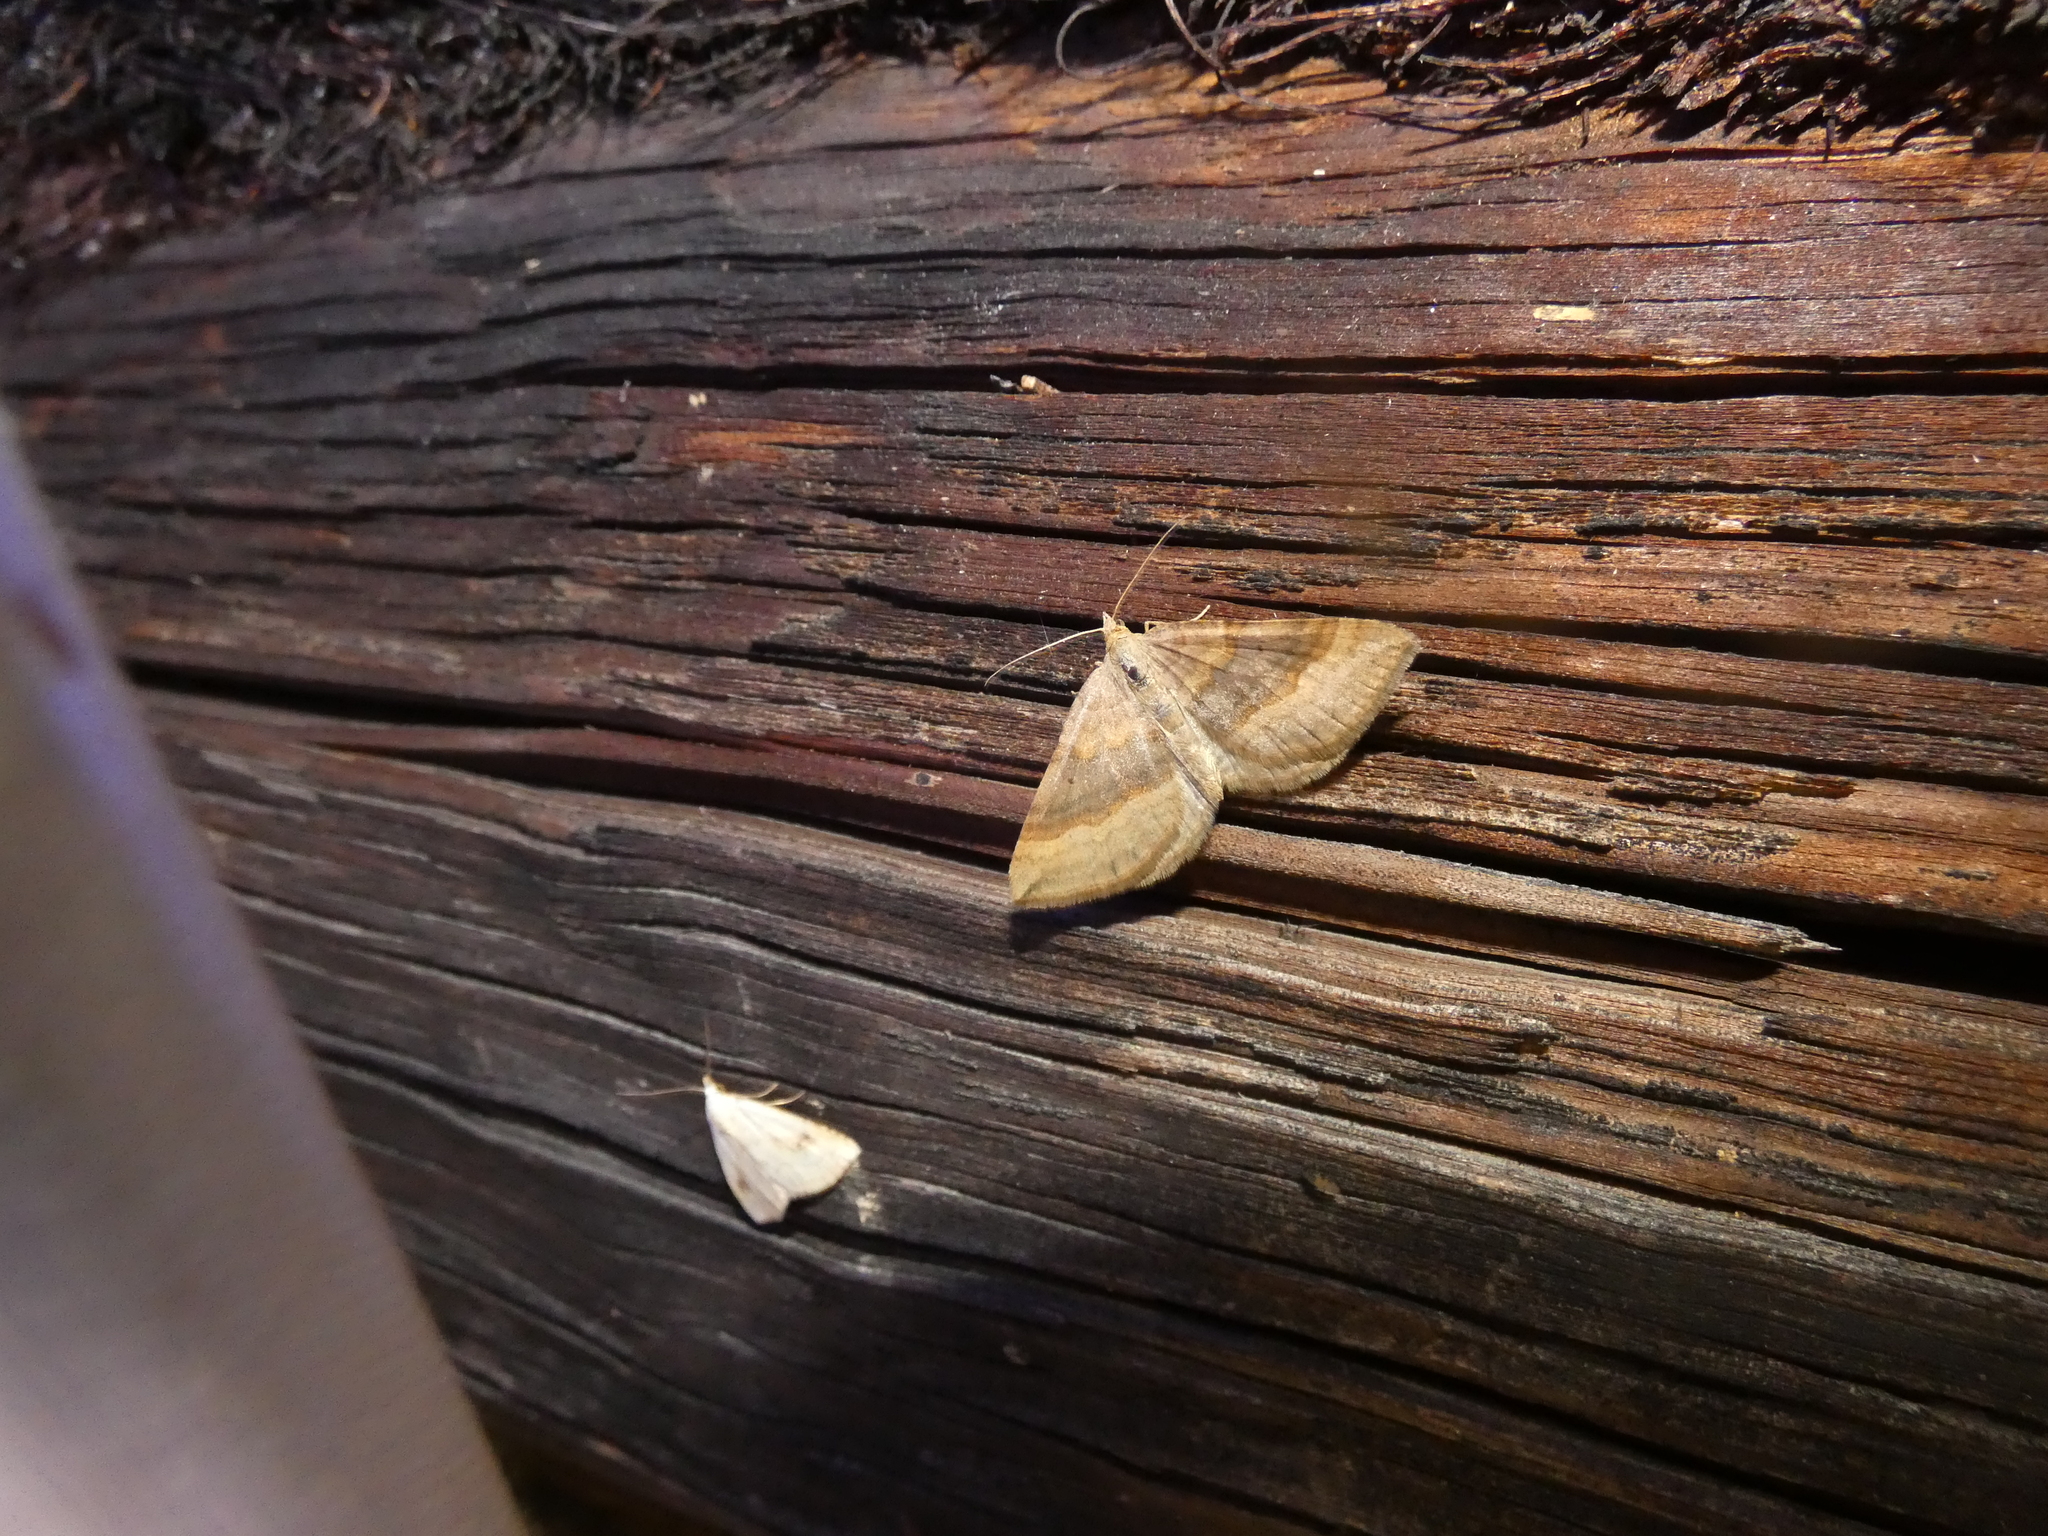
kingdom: Animalia
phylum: Arthropoda
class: Insecta
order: Lepidoptera
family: Geometridae
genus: Scotopteryx
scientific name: Scotopteryx chenopodiata
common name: Shaded broad-bar
